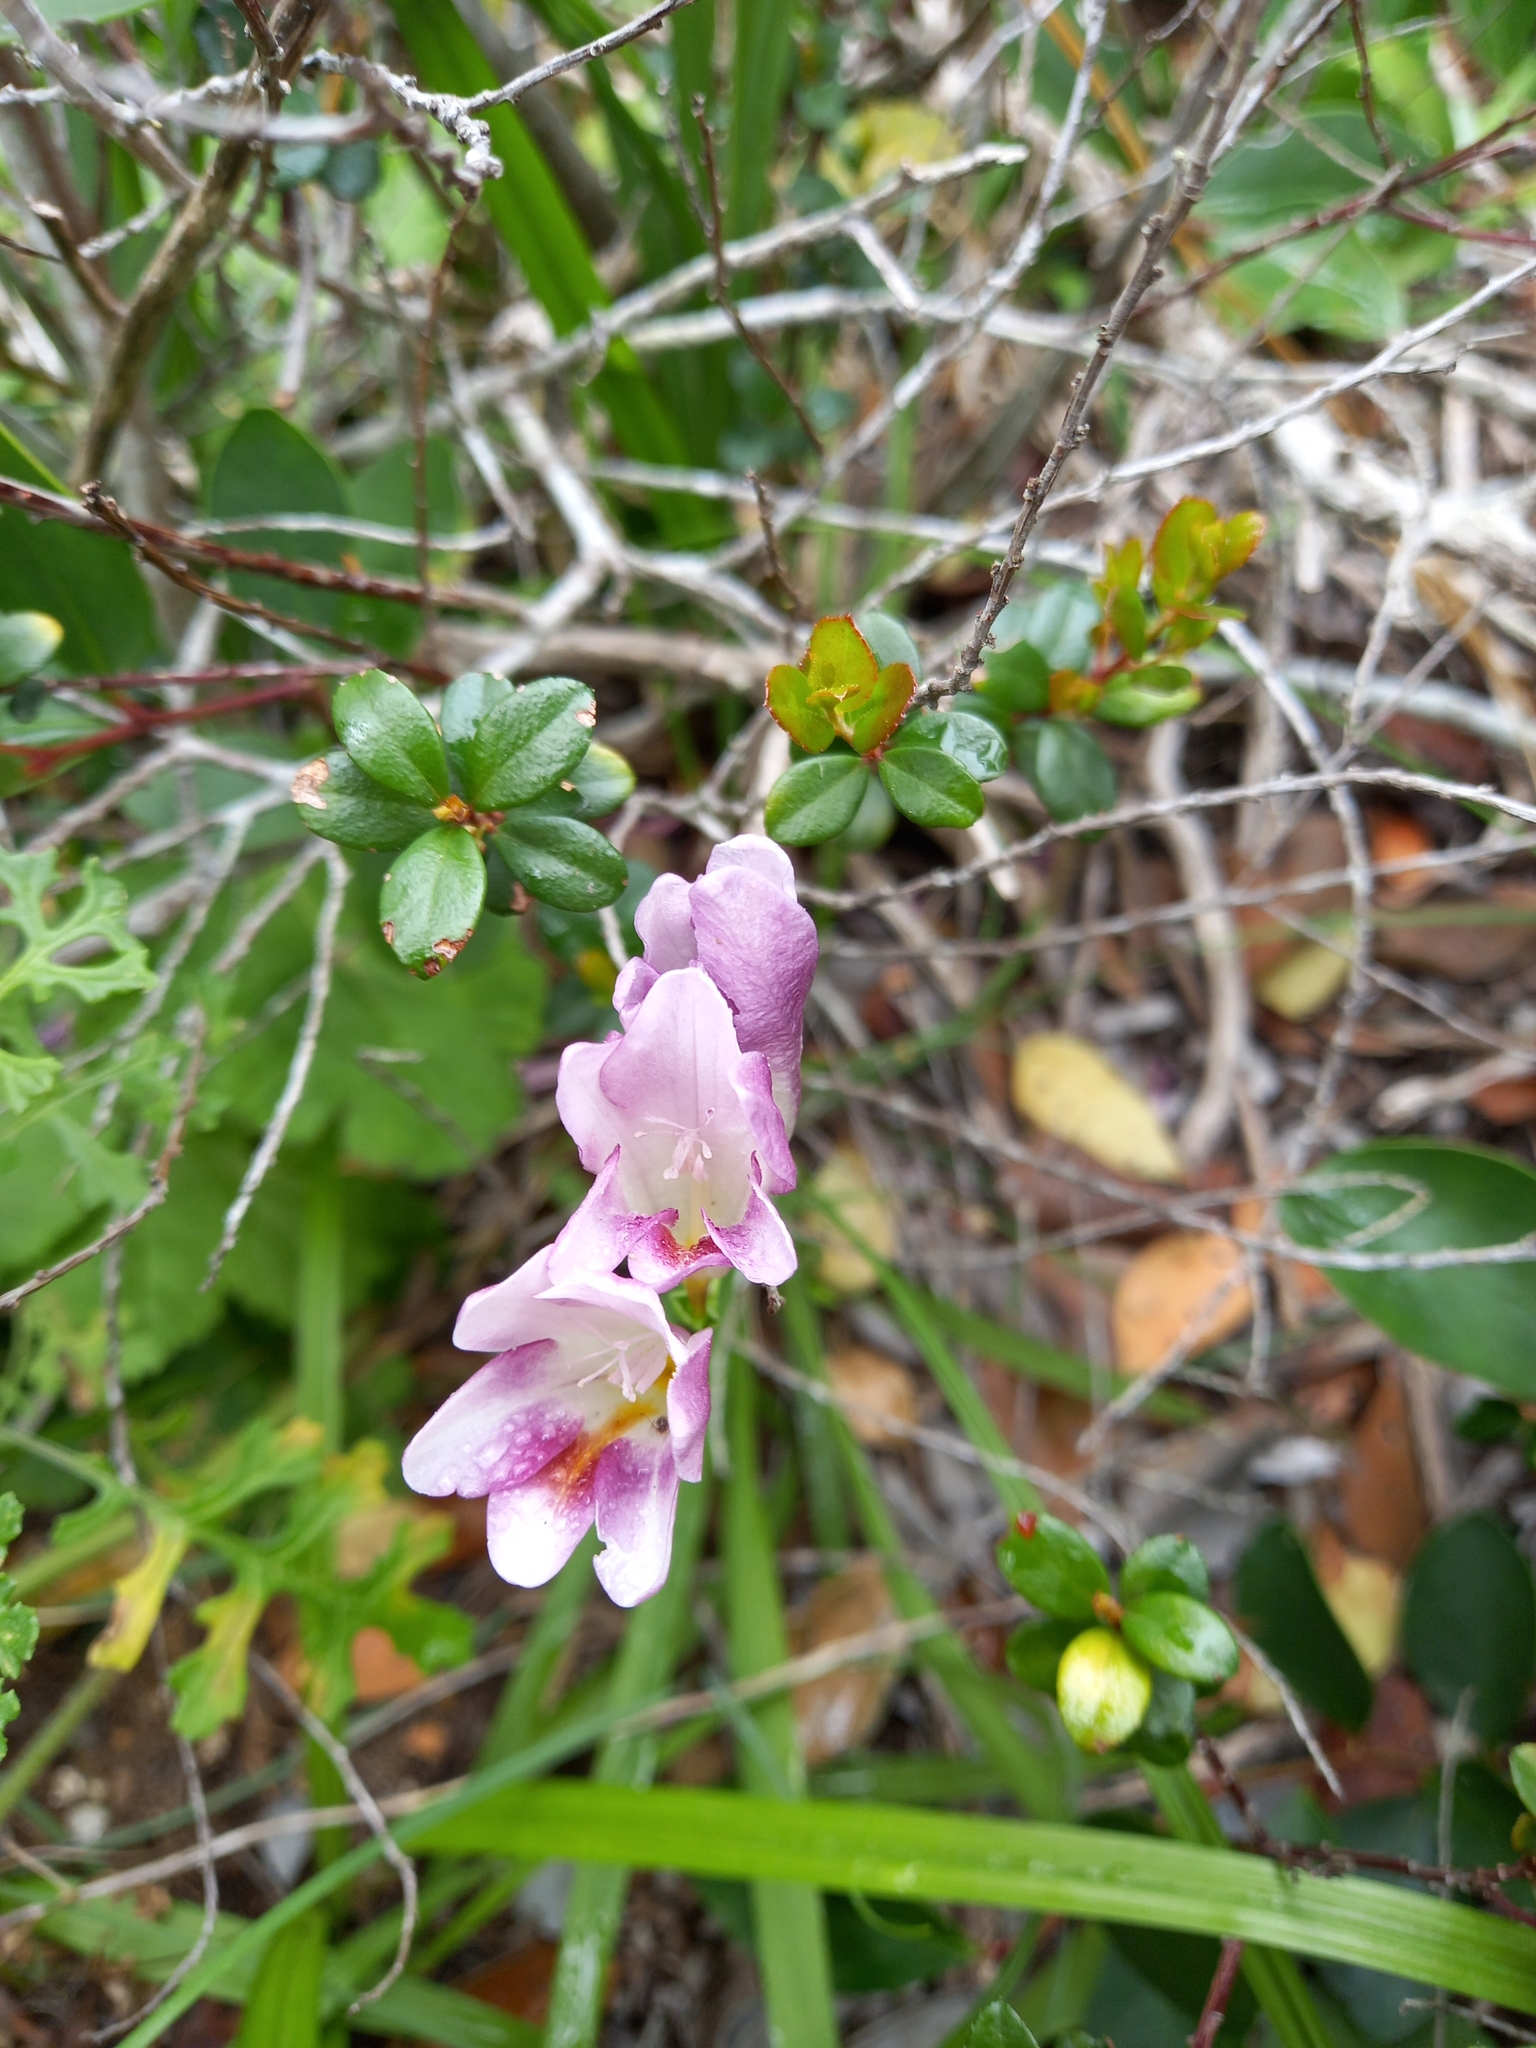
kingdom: Plantae
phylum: Tracheophyta
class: Liliopsida
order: Asparagales
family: Iridaceae
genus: Freesia
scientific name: Freesia leichtlinii
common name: Freesia
